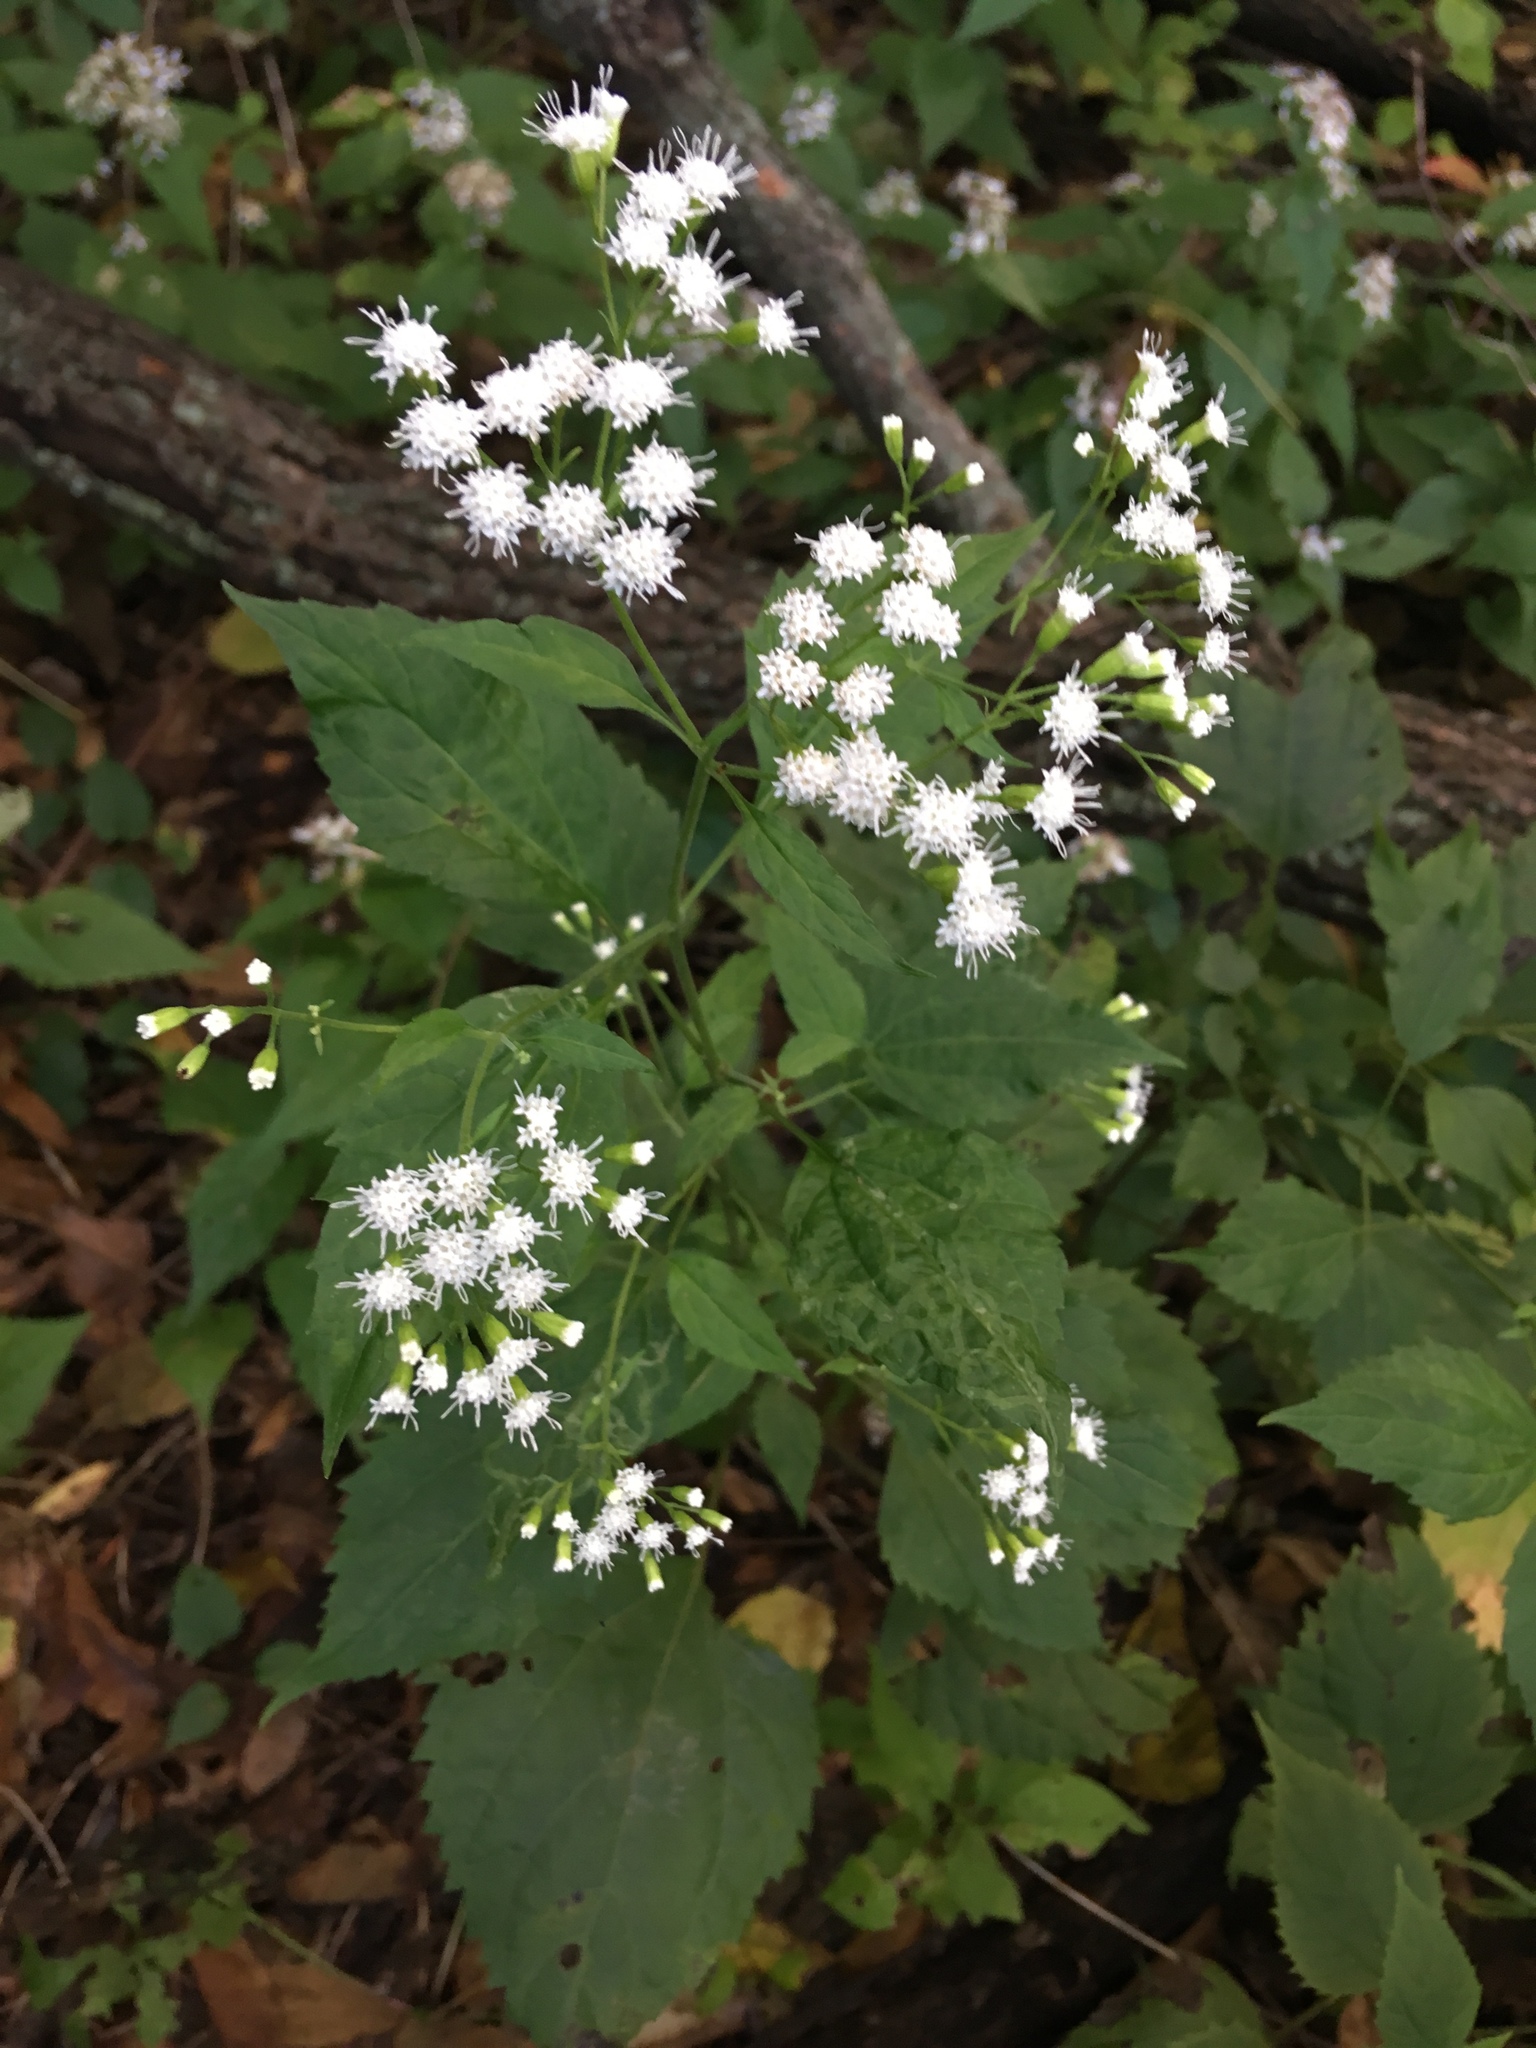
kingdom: Plantae
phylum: Tracheophyta
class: Magnoliopsida
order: Asterales
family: Asteraceae
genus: Ageratina
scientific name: Ageratina altissima
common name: White snakeroot
